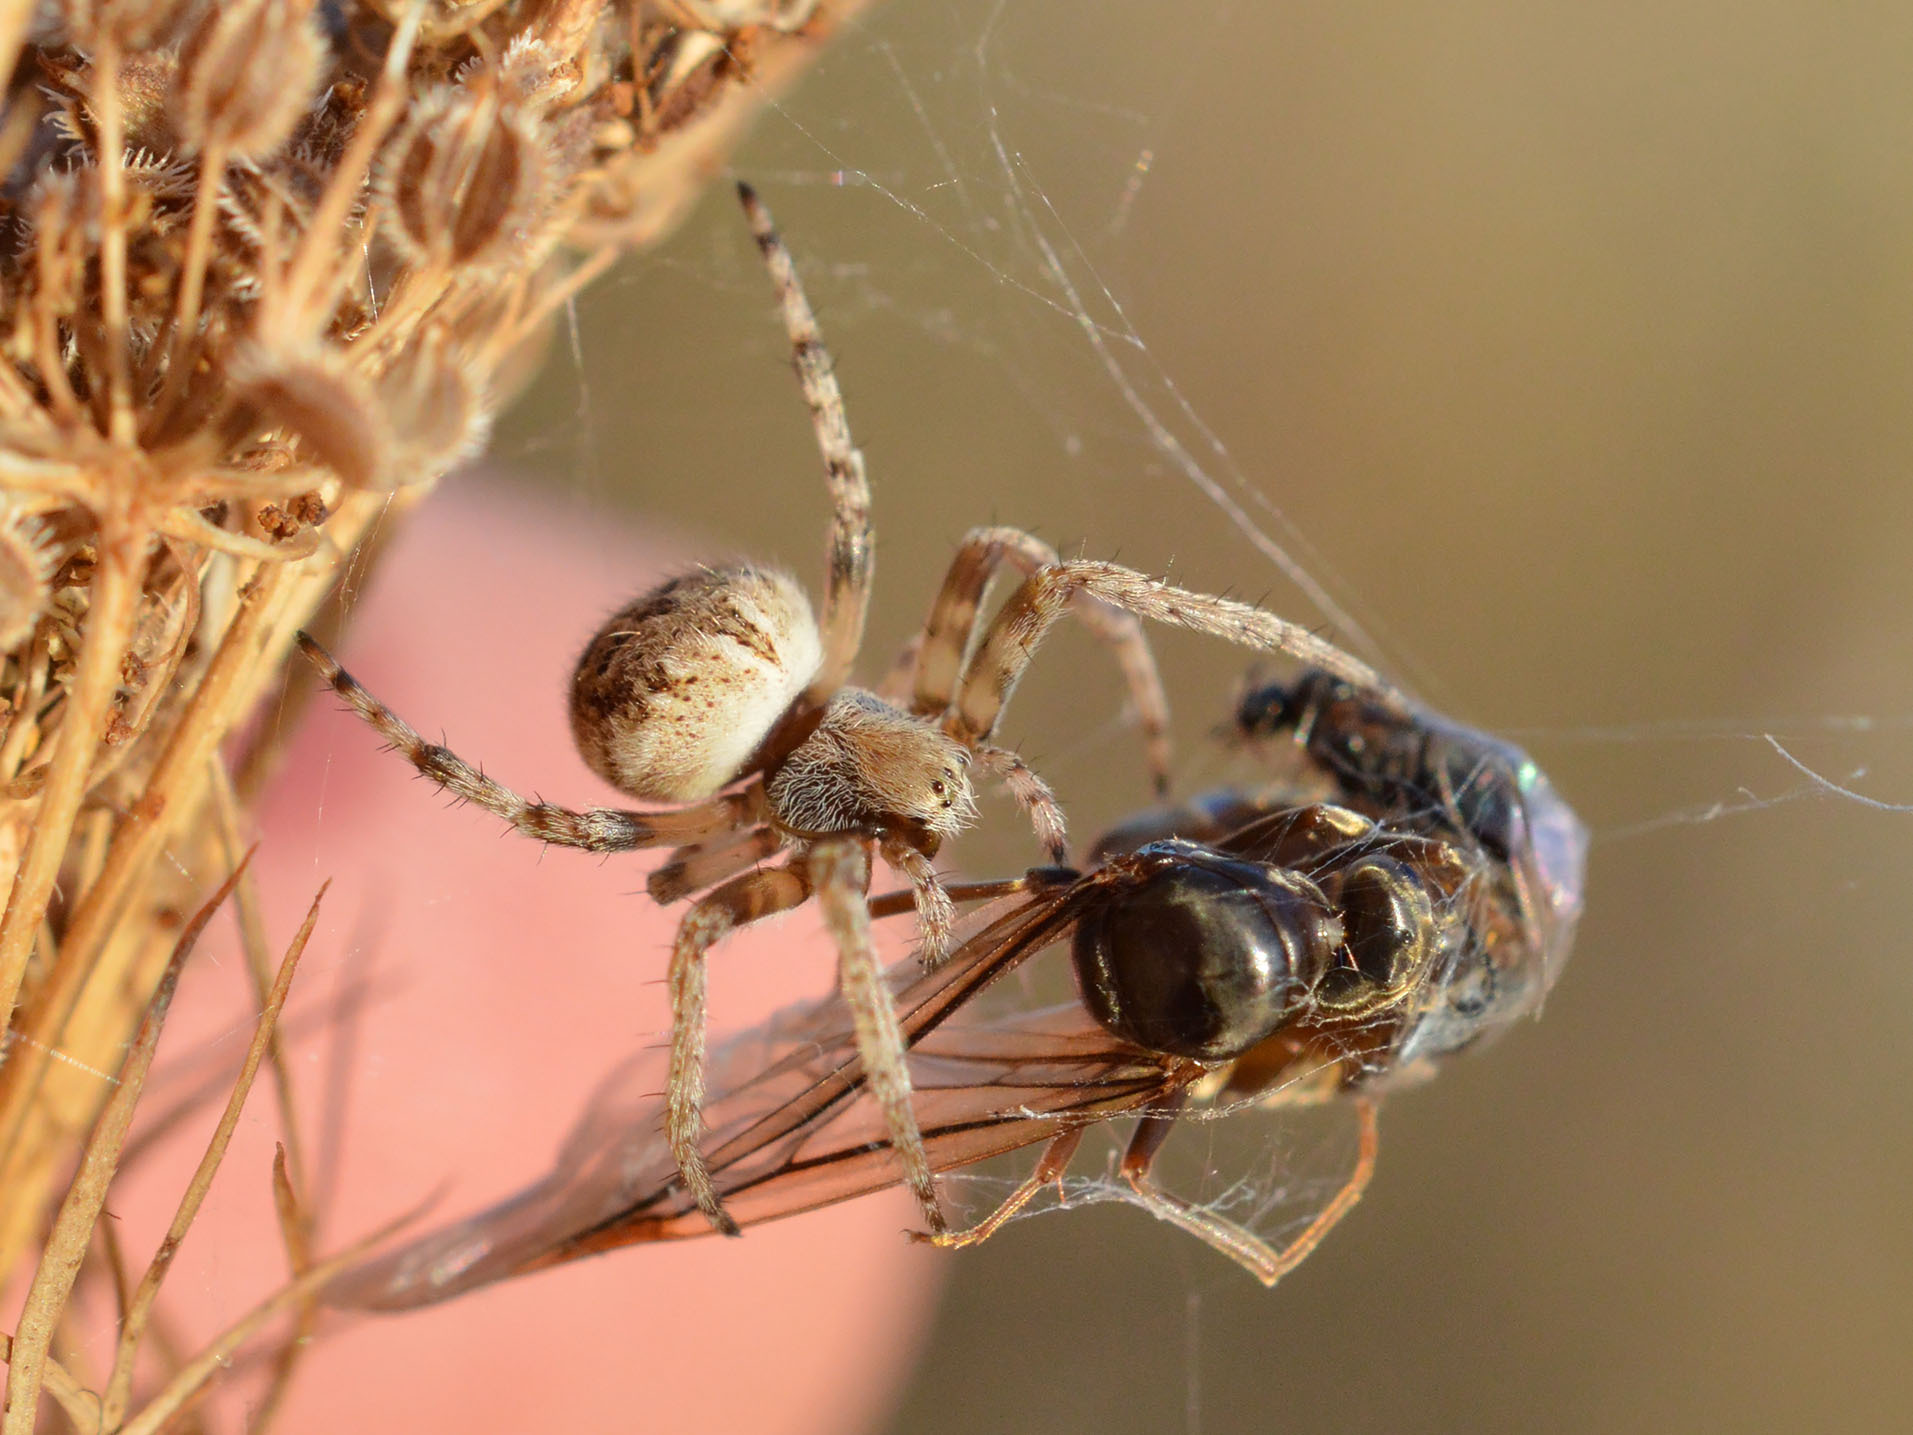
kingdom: Animalia
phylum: Arthropoda
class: Arachnida
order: Araneae
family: Araneidae
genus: Agalenatea
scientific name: Agalenatea redii
